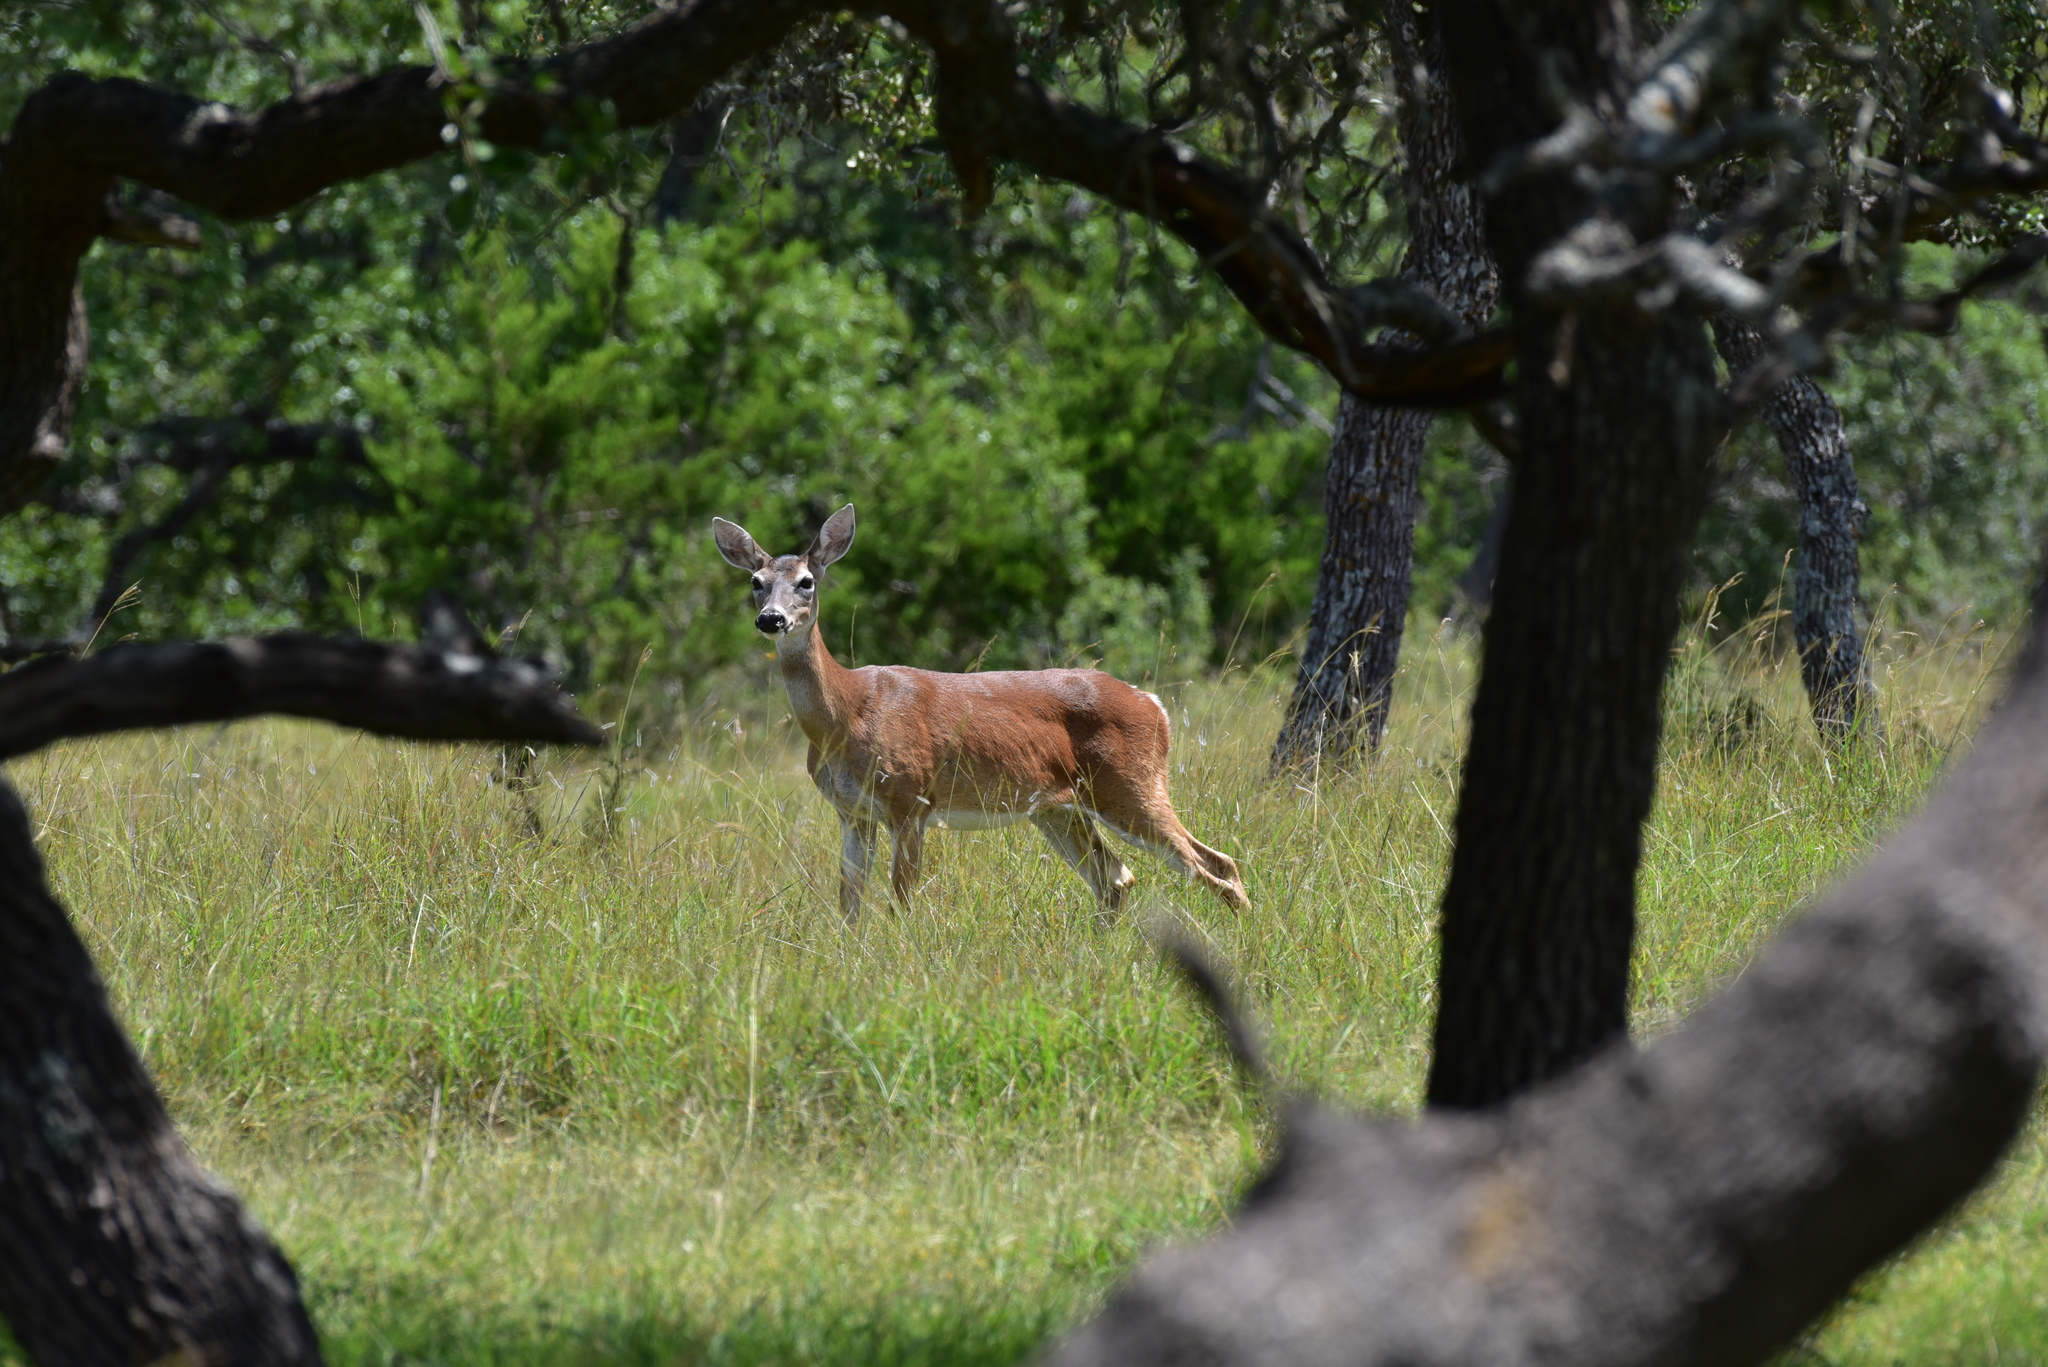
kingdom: Animalia
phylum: Chordata
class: Mammalia
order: Artiodactyla
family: Cervidae
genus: Odocoileus
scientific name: Odocoileus virginianus
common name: White-tailed deer
